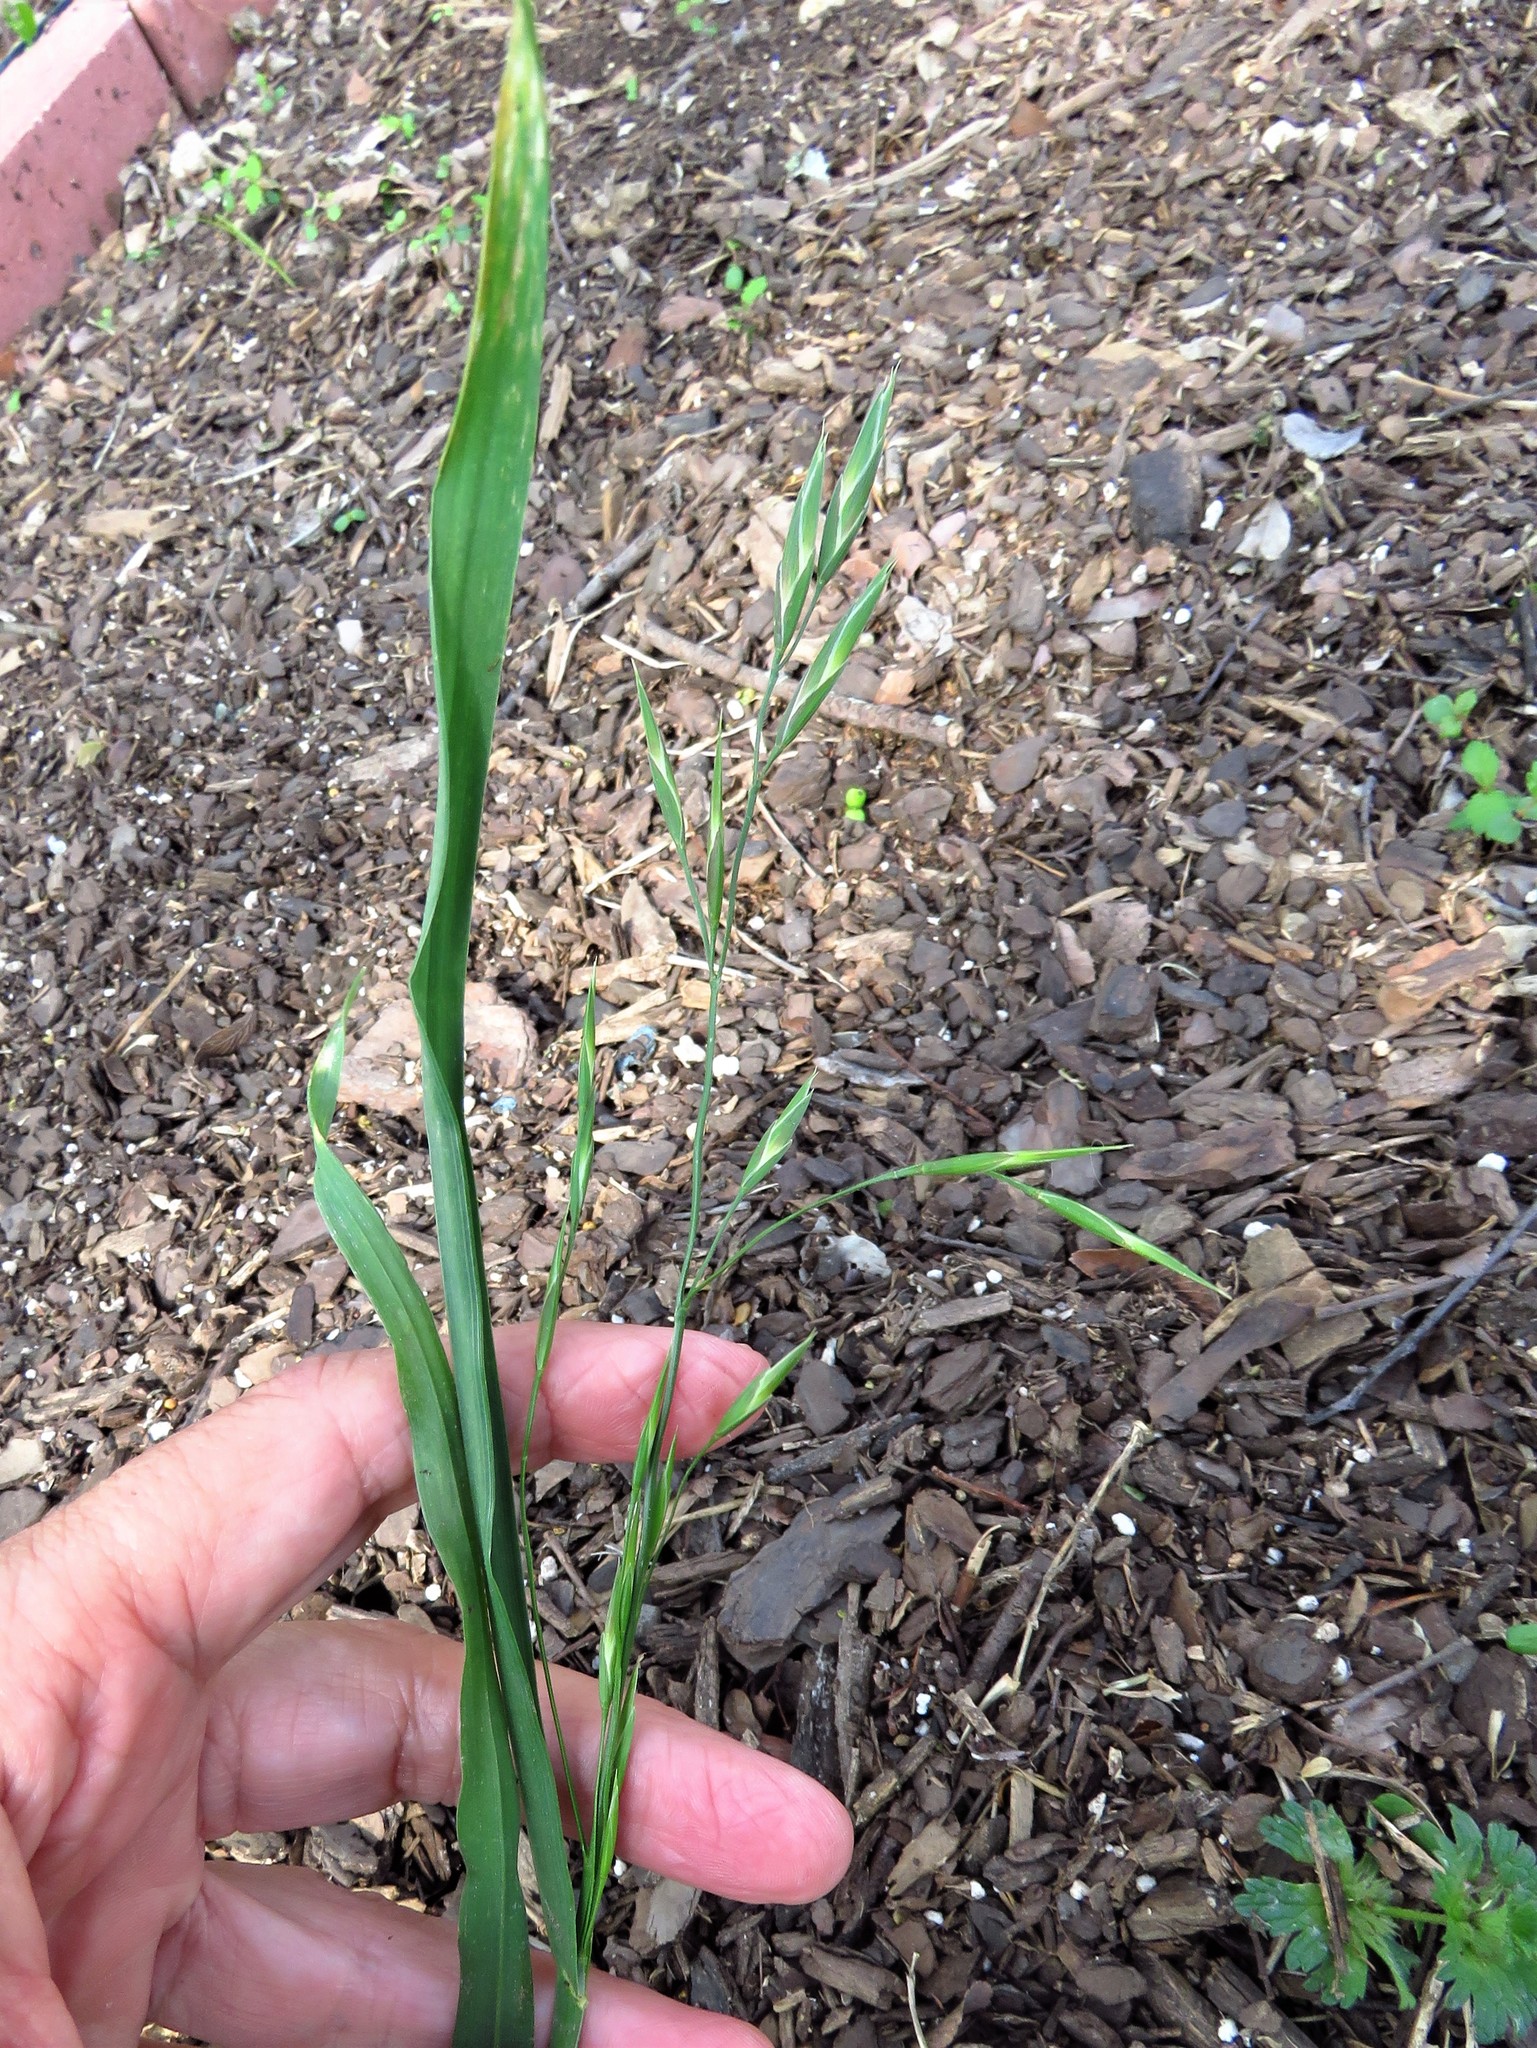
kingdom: Plantae
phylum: Tracheophyta
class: Liliopsida
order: Poales
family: Poaceae
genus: Bromus
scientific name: Bromus catharticus
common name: Rescuegrass
